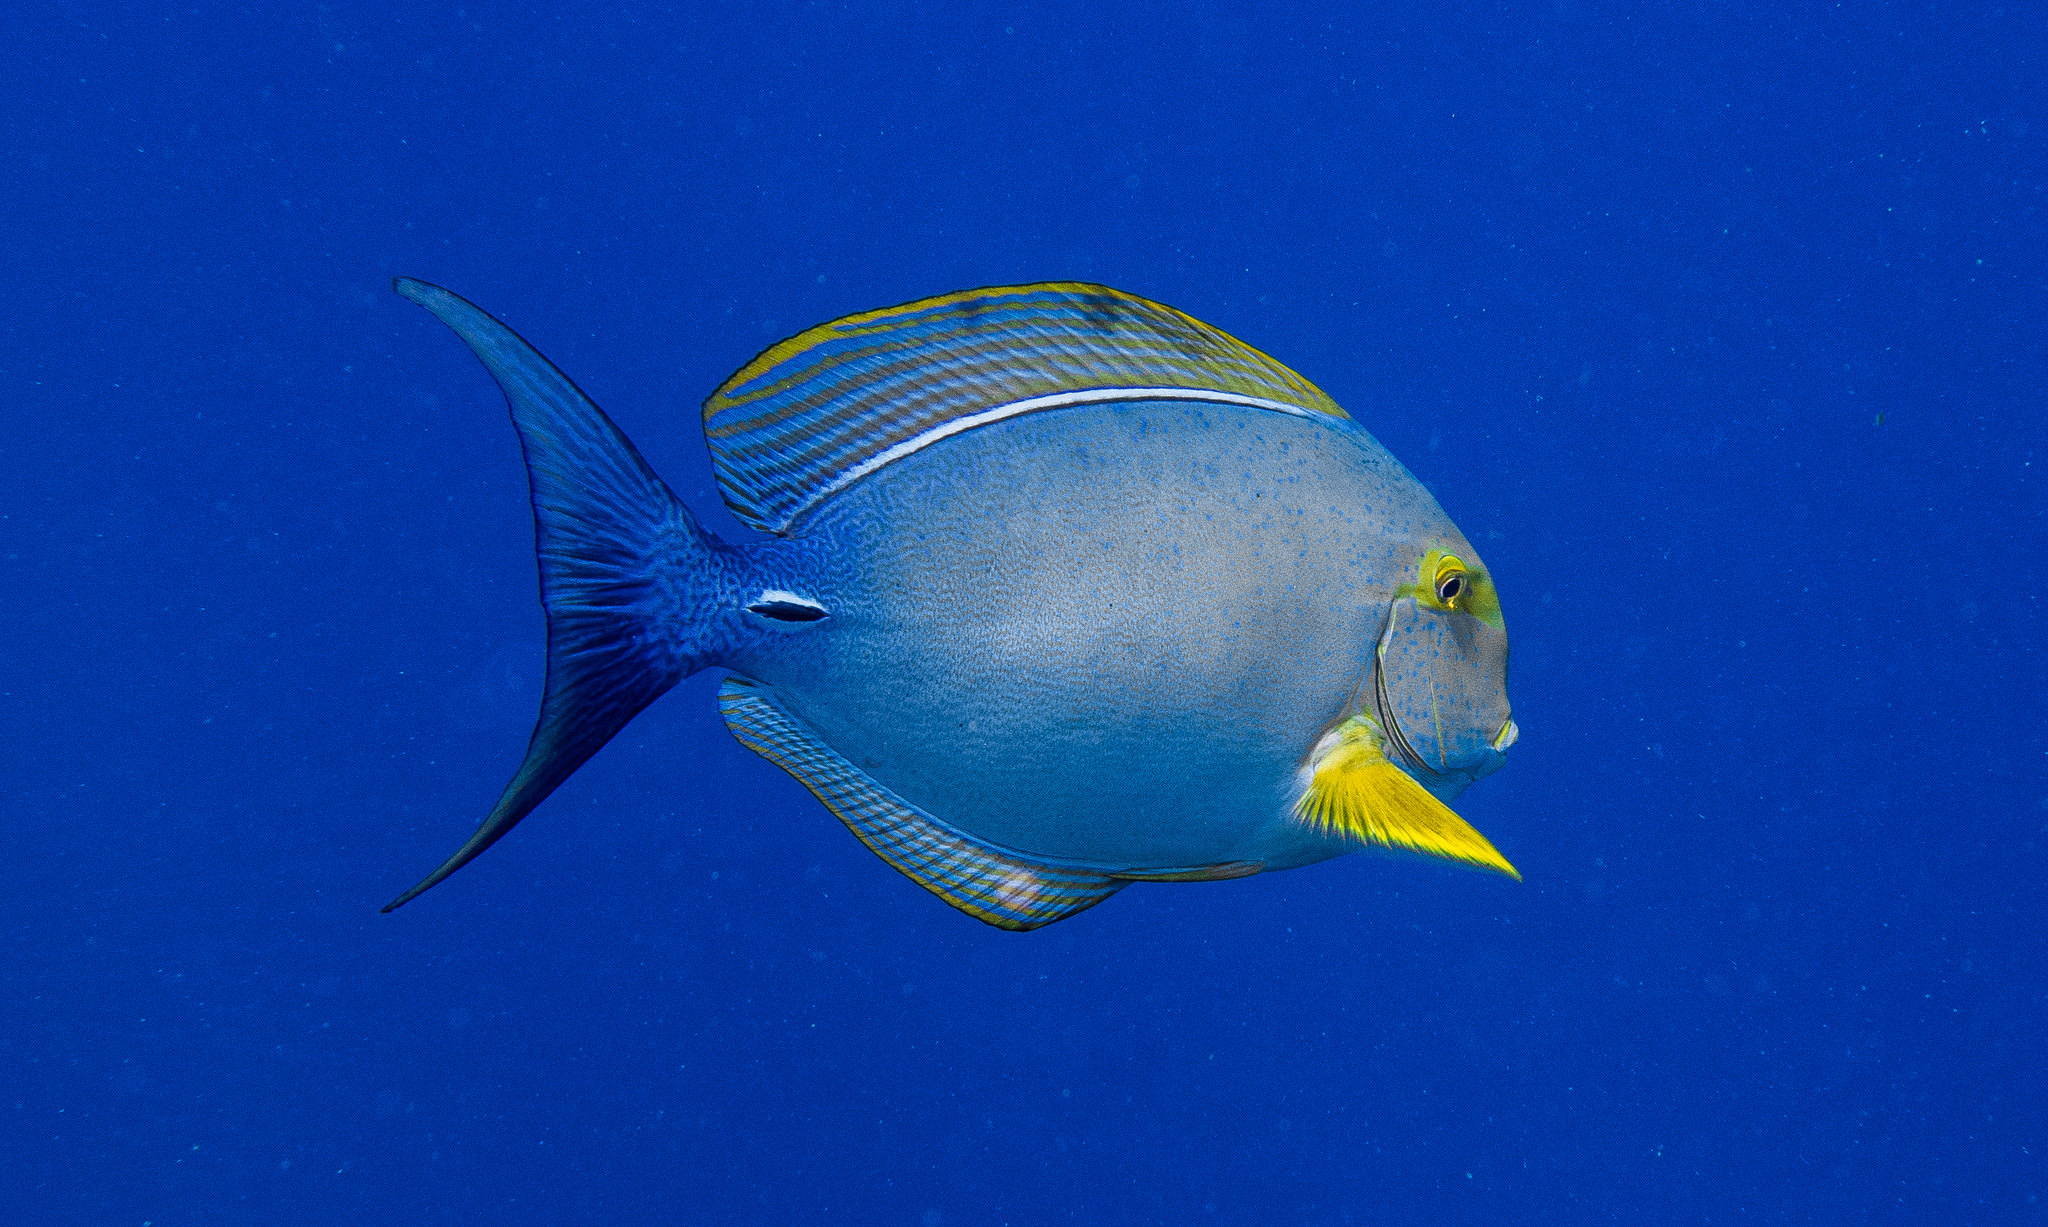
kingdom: Animalia
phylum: Chordata
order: Perciformes
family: Acanthuridae
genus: Acanthurus
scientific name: Acanthurus xanthopterus
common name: Cuvier's surgeonfish
